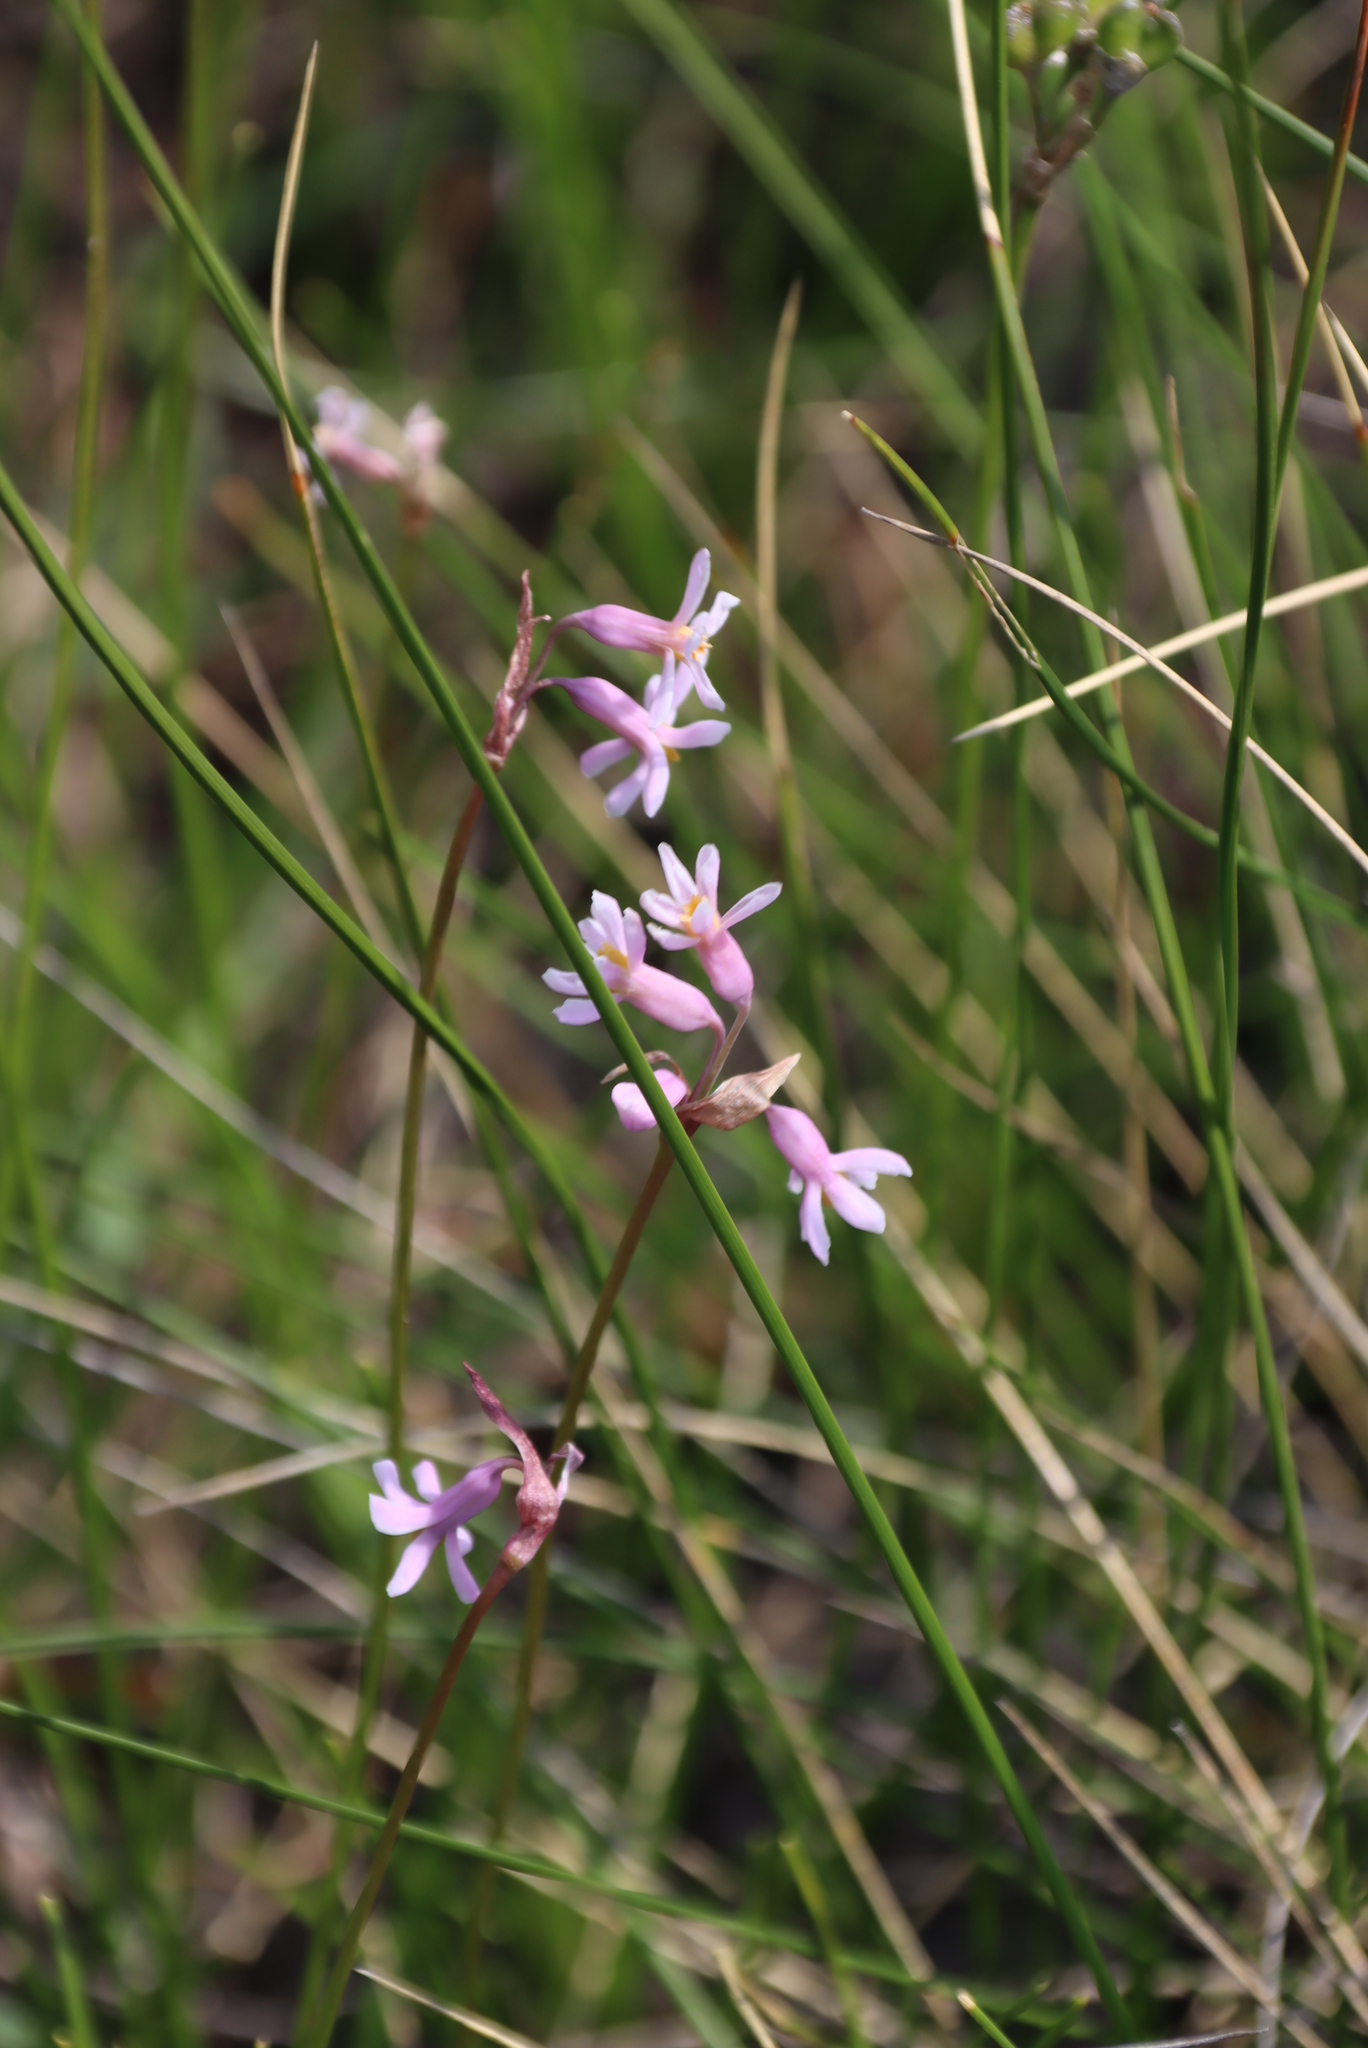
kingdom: Plantae
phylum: Tracheophyta
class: Liliopsida
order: Asparagales
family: Amaryllidaceae
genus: Tulbaghia
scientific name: Tulbaghia coddii
